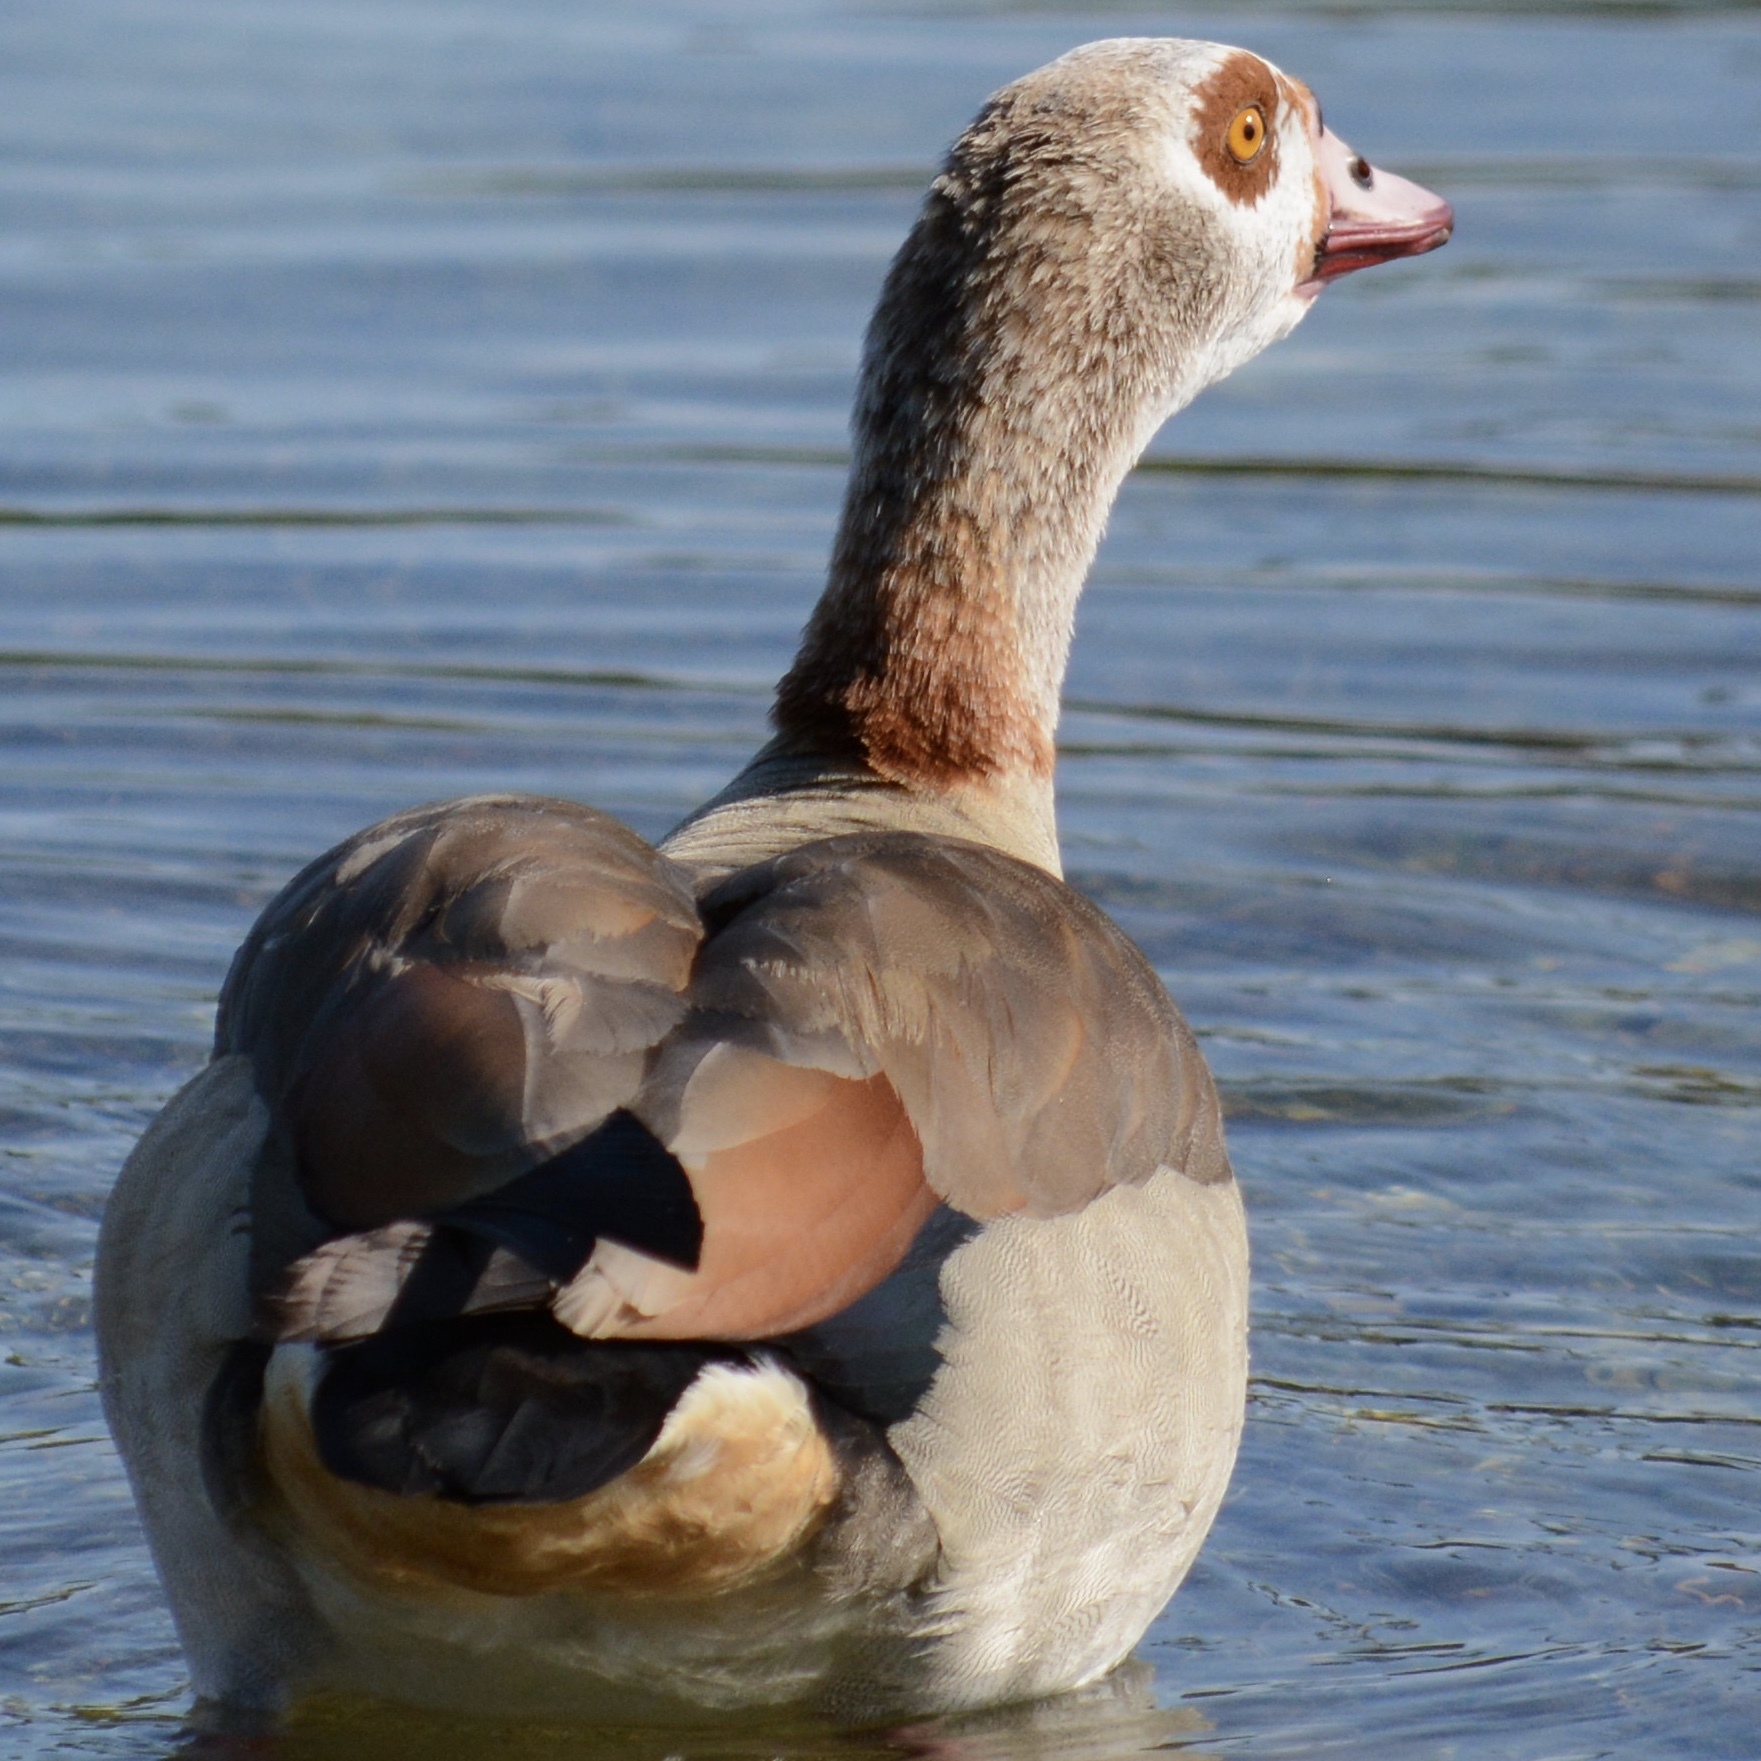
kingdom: Animalia
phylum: Chordata
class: Aves
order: Anseriformes
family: Anatidae
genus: Alopochen
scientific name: Alopochen aegyptiaca
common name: Egyptian goose
